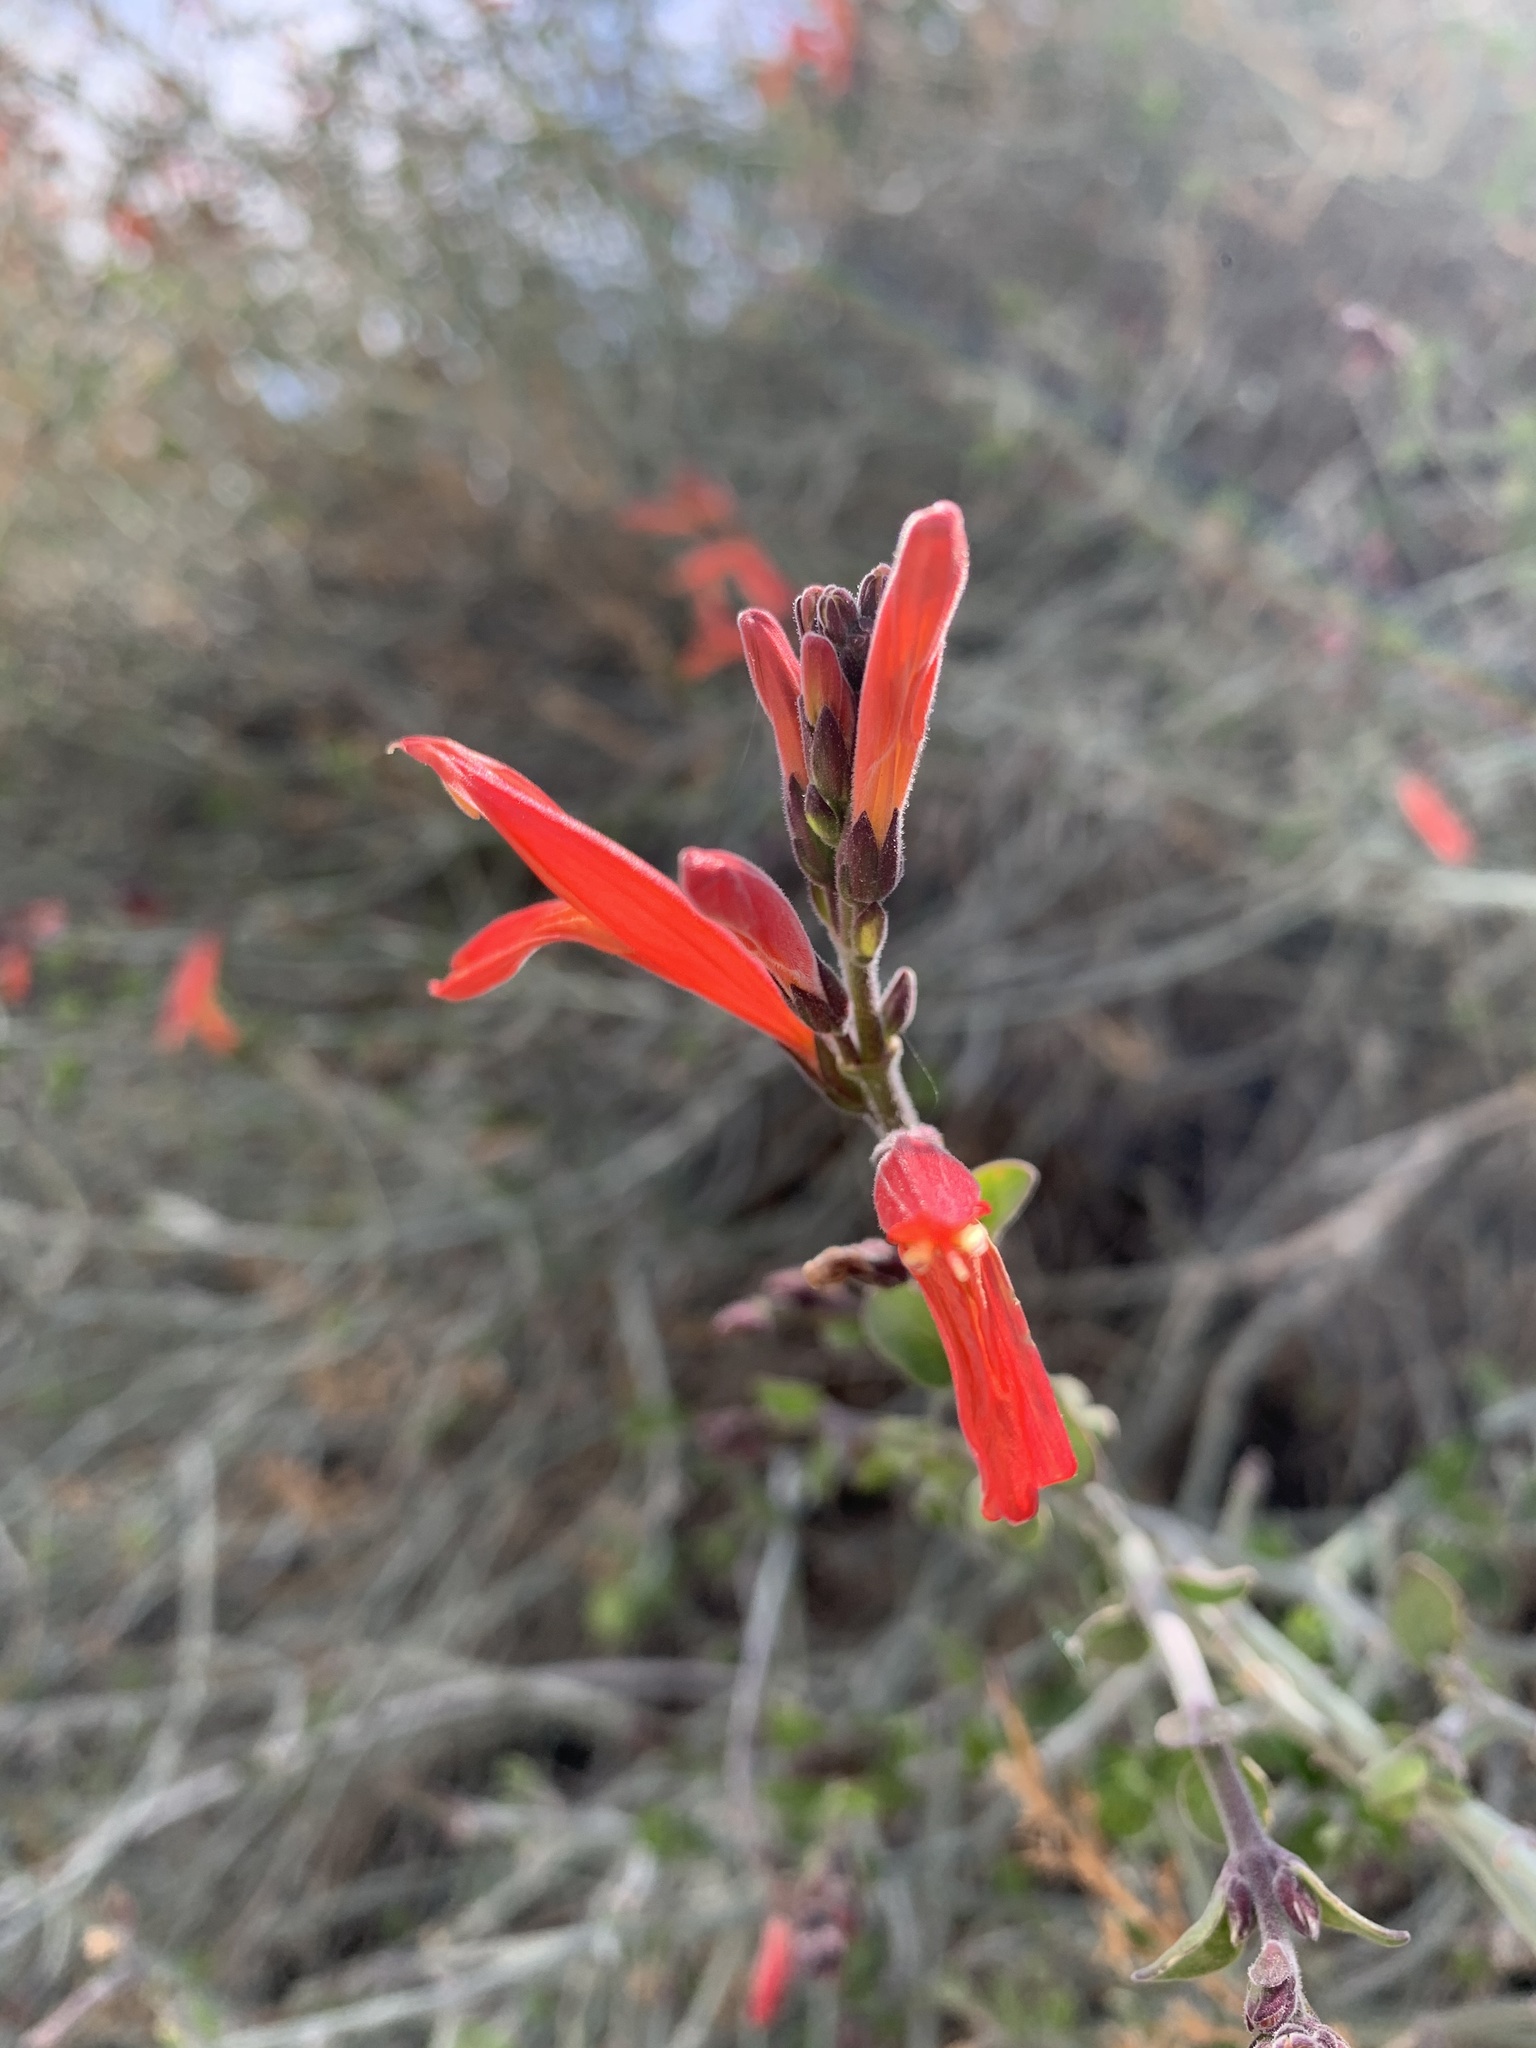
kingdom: Plantae
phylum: Tracheophyta
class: Magnoliopsida
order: Lamiales
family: Acanthaceae
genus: Justicia
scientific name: Justicia californica
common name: Chuparosa-honeysuckle
